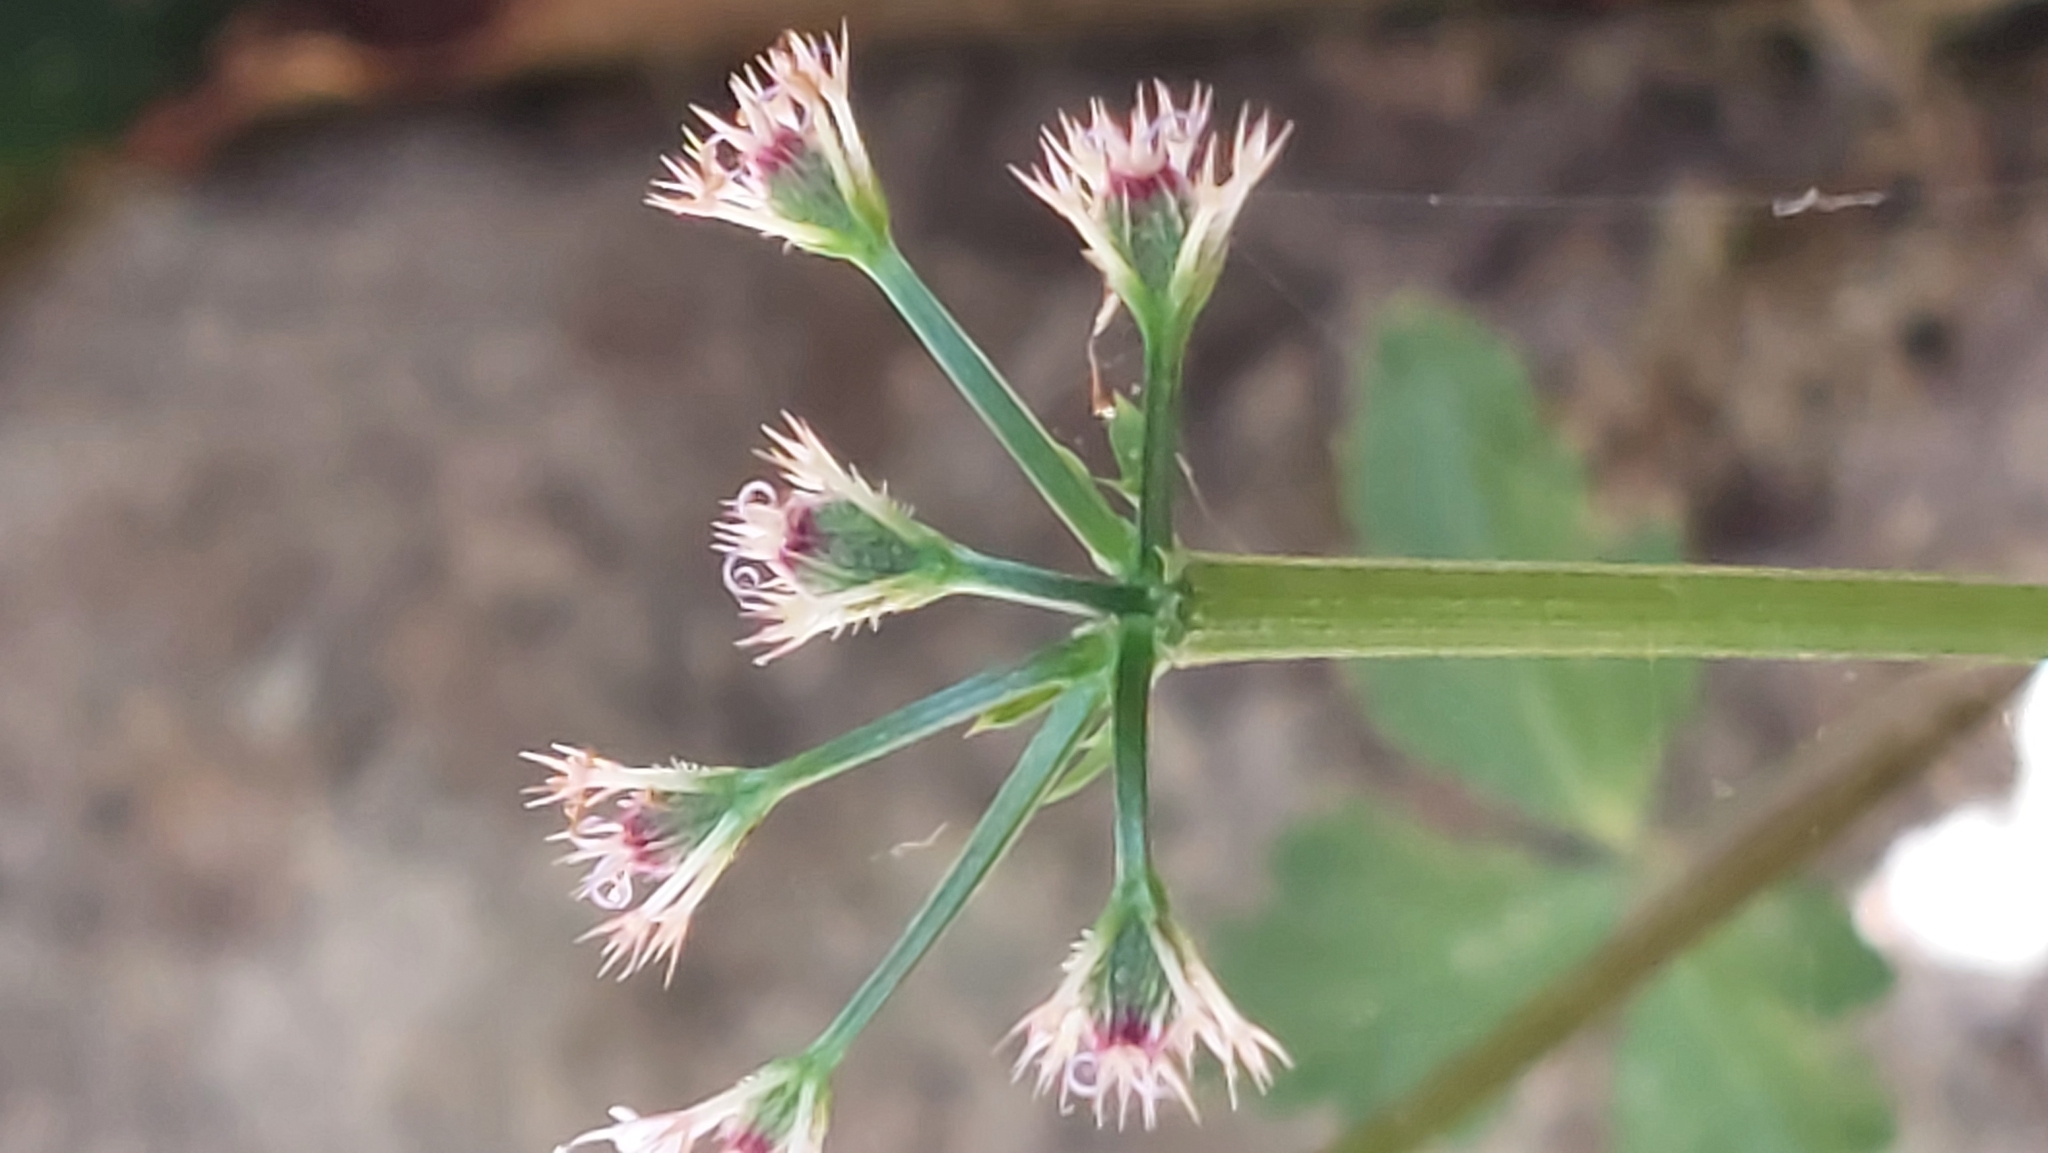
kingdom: Plantae
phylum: Tracheophyta
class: Magnoliopsida
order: Apiales
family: Apiaceae
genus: Sanicula
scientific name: Sanicula lamelligera
